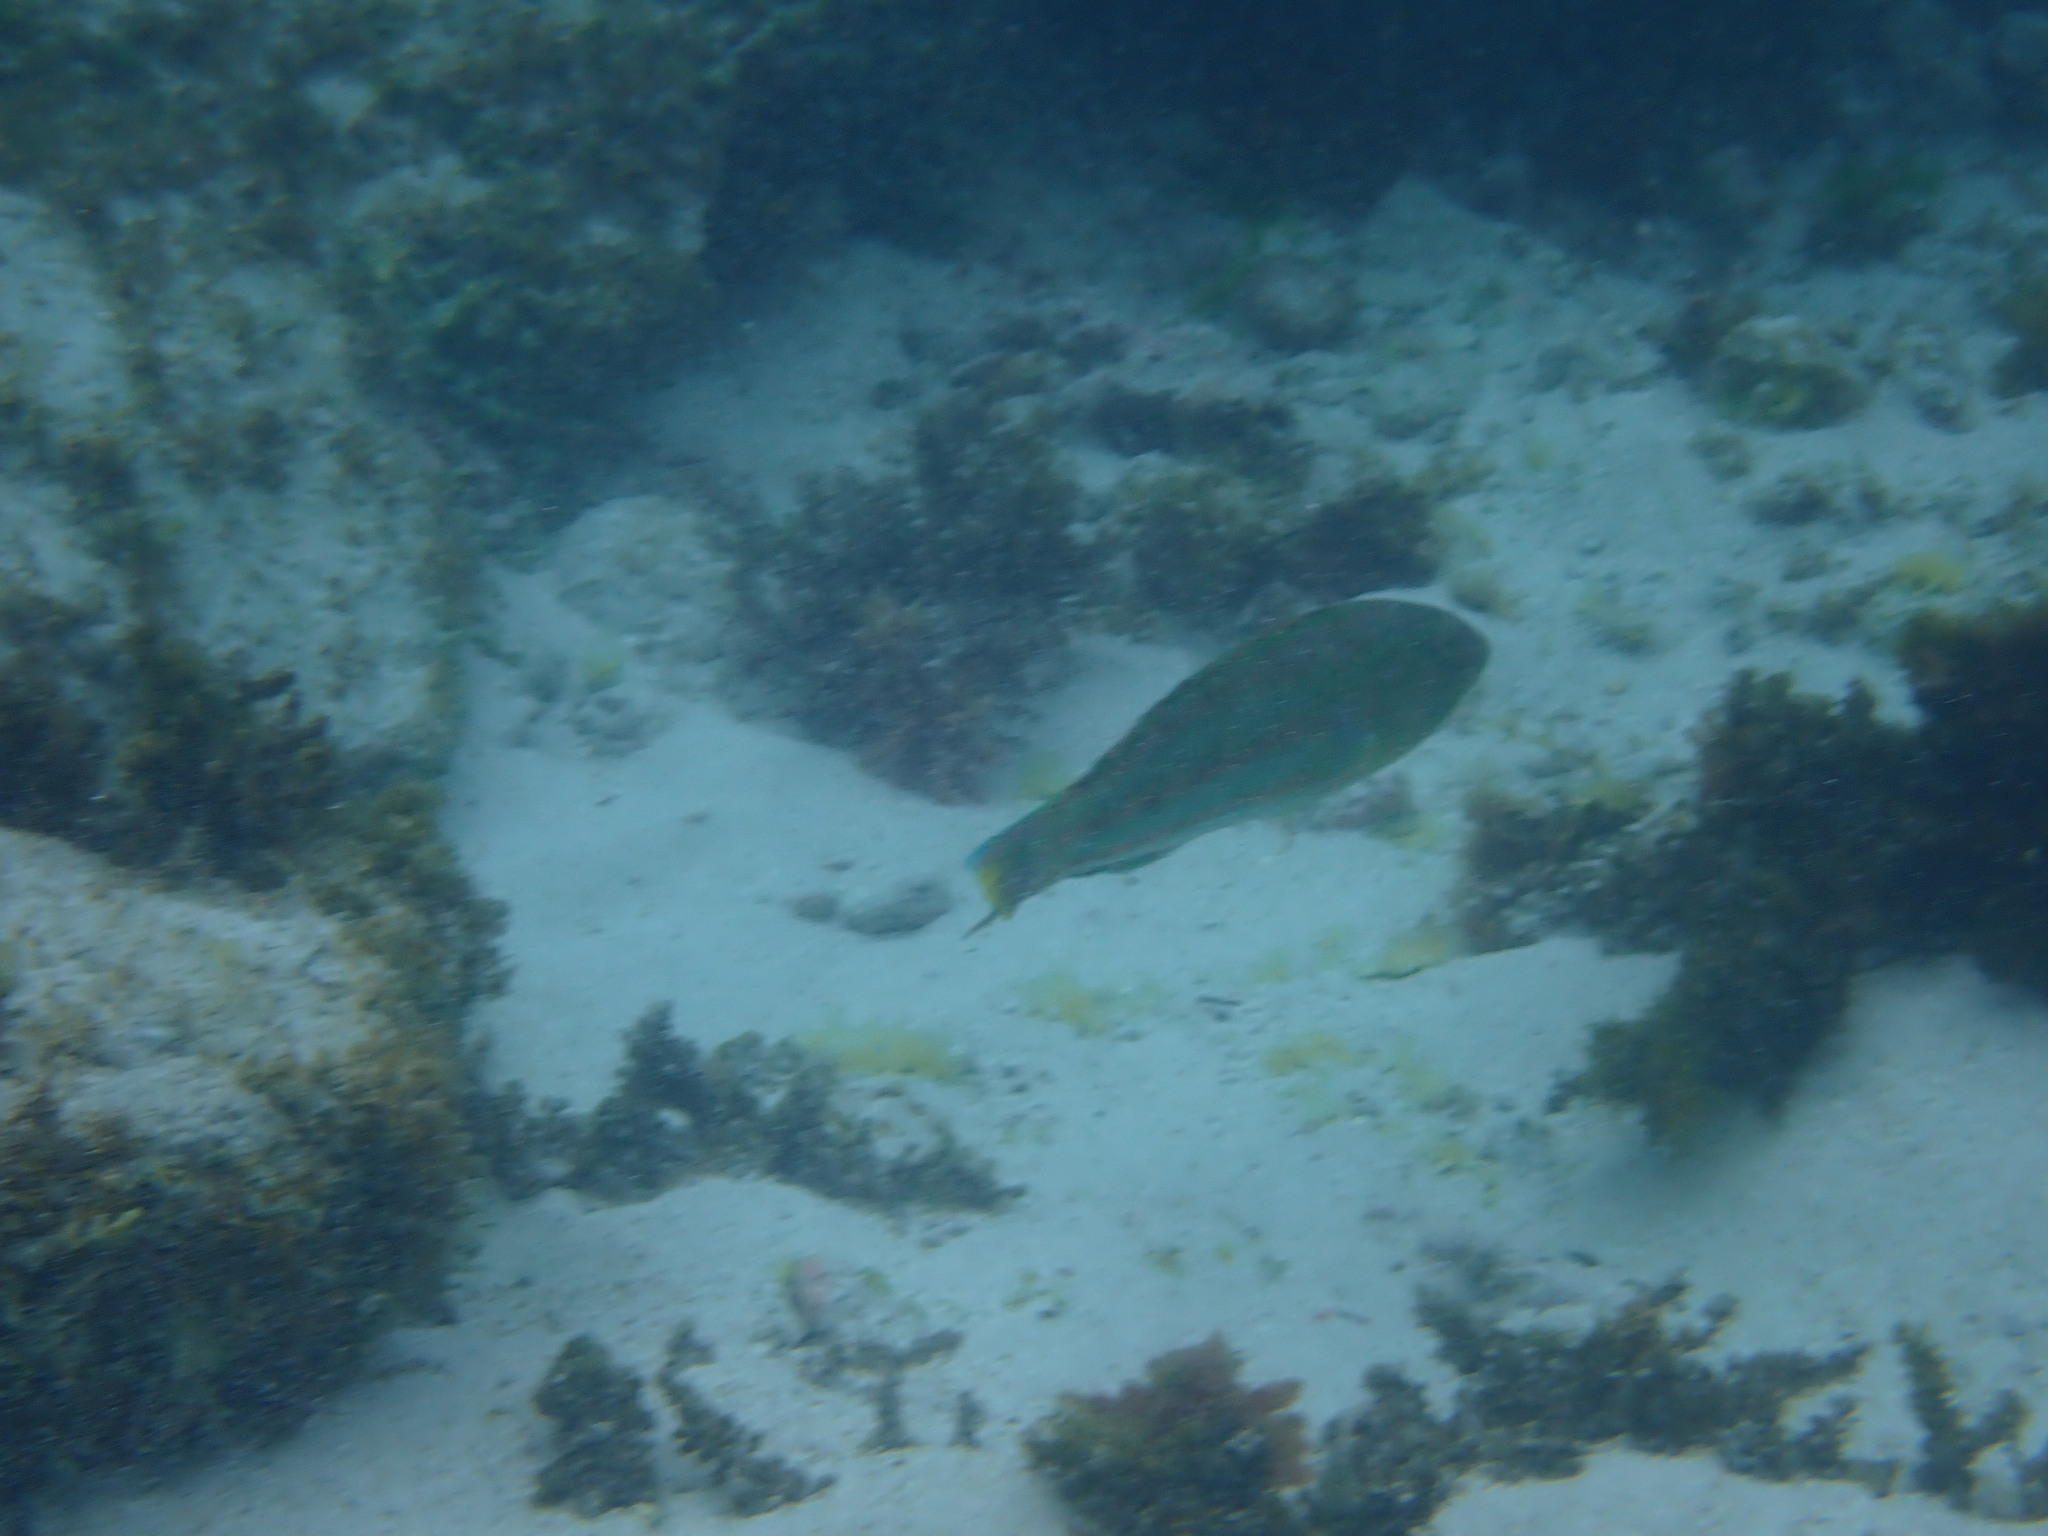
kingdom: Animalia
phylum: Chordata
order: Perciformes
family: Labridae
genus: Thalassoma
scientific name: Thalassoma purpureum
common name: Parrotfish
